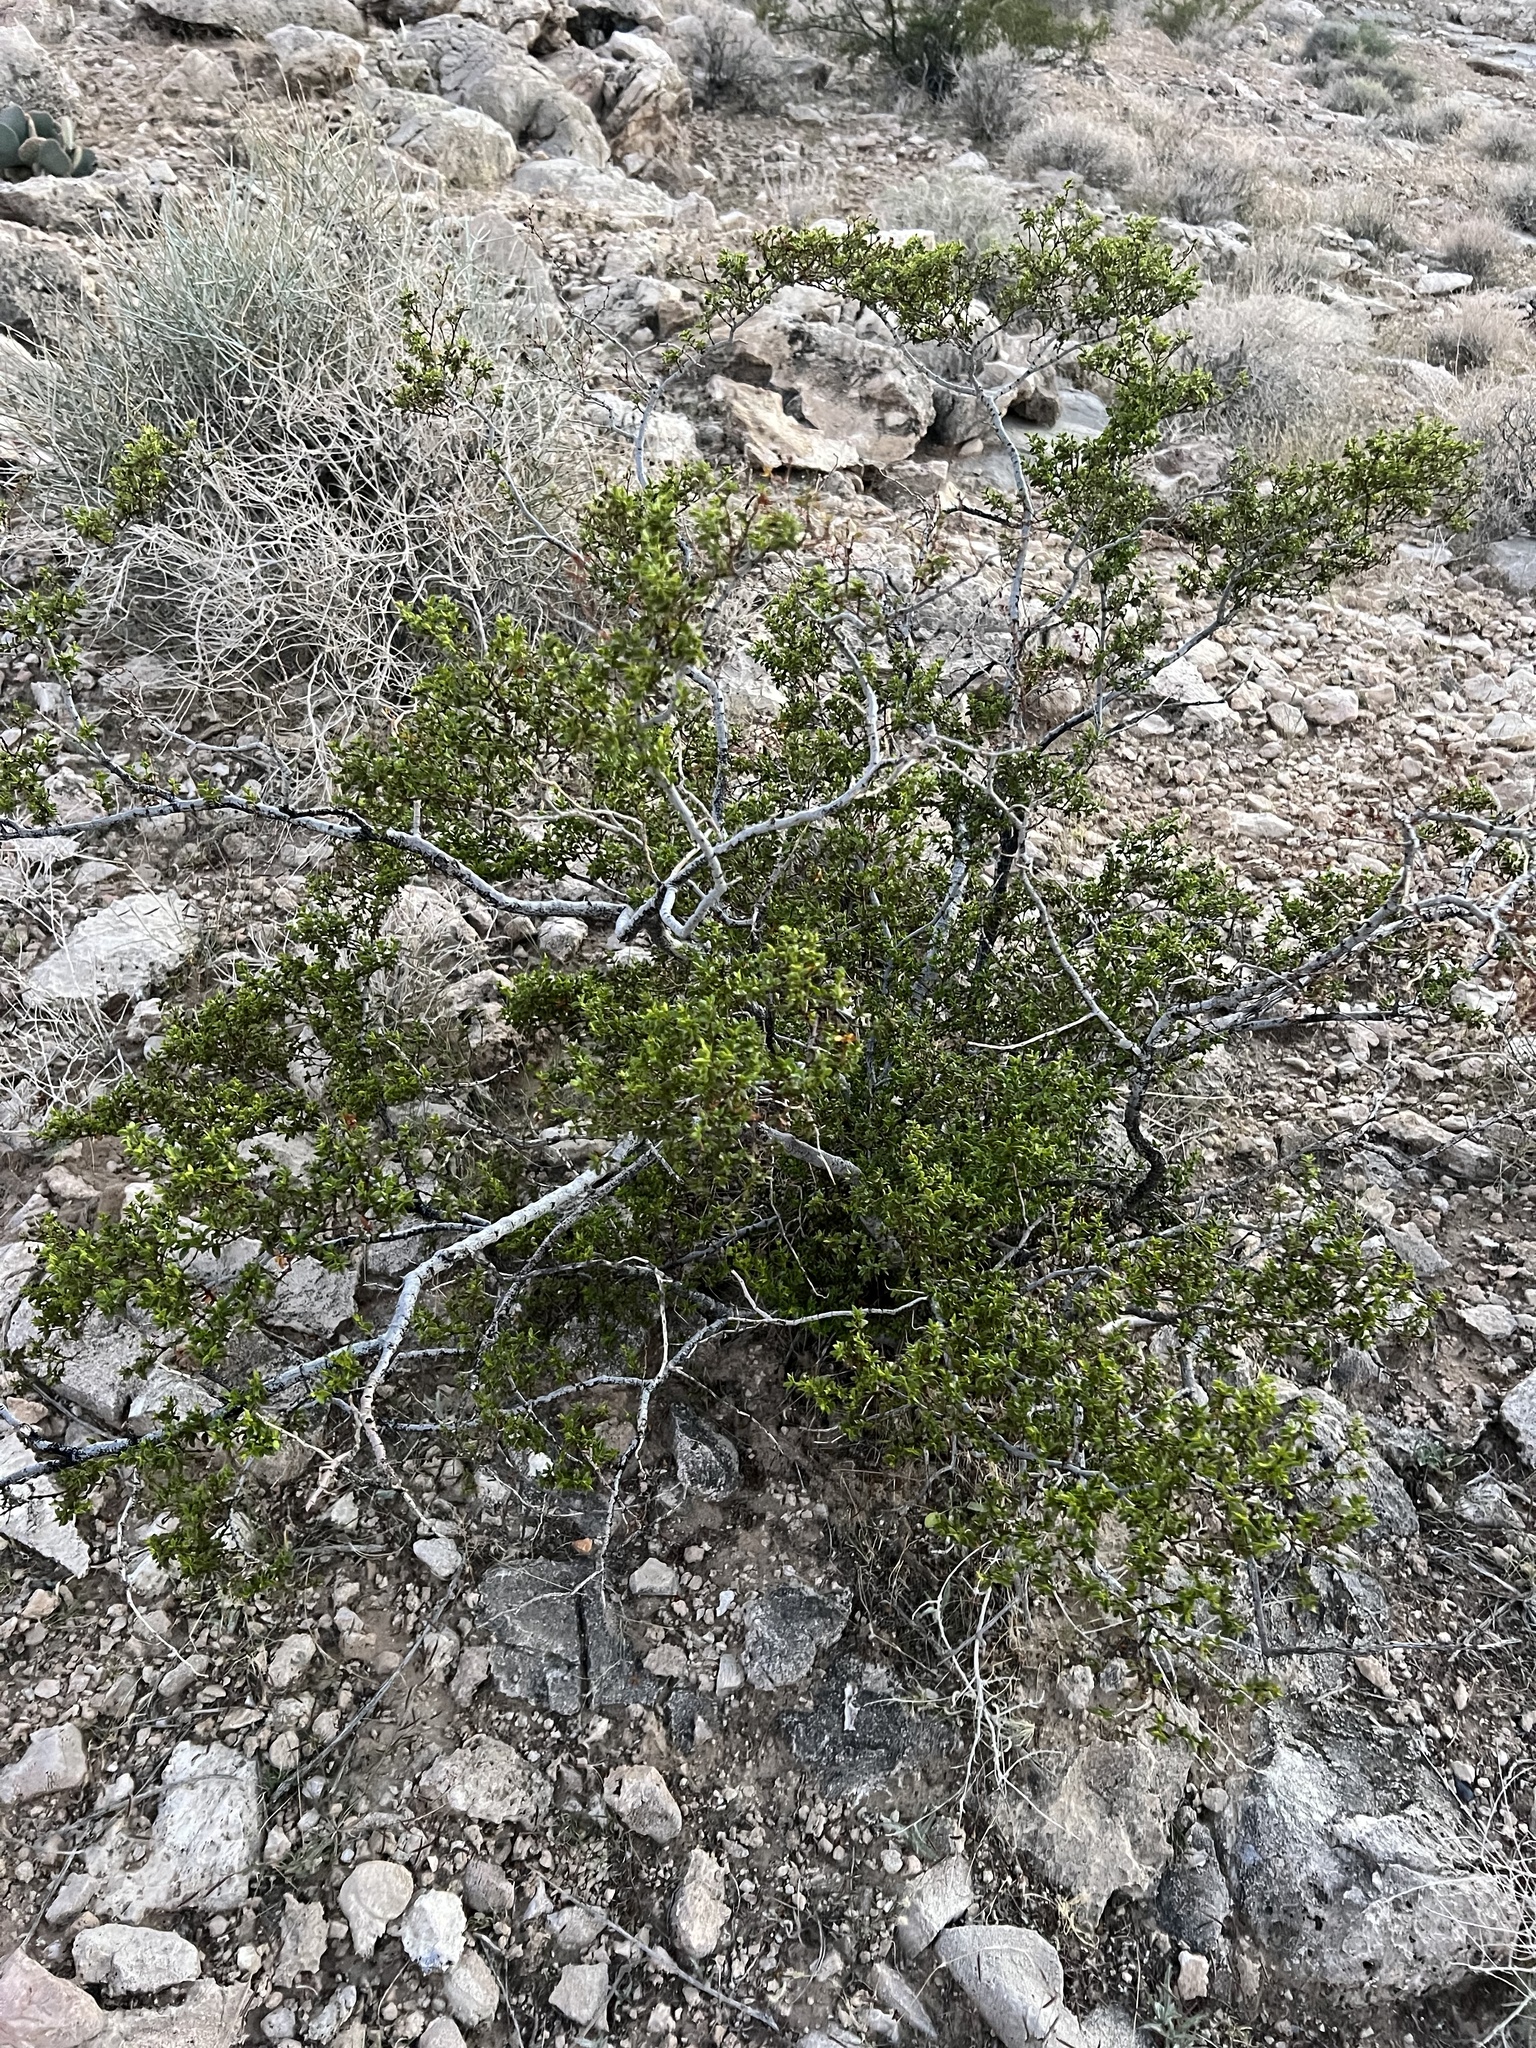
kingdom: Plantae
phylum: Tracheophyta
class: Magnoliopsida
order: Zygophyllales
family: Zygophyllaceae
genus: Larrea
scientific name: Larrea tridentata
